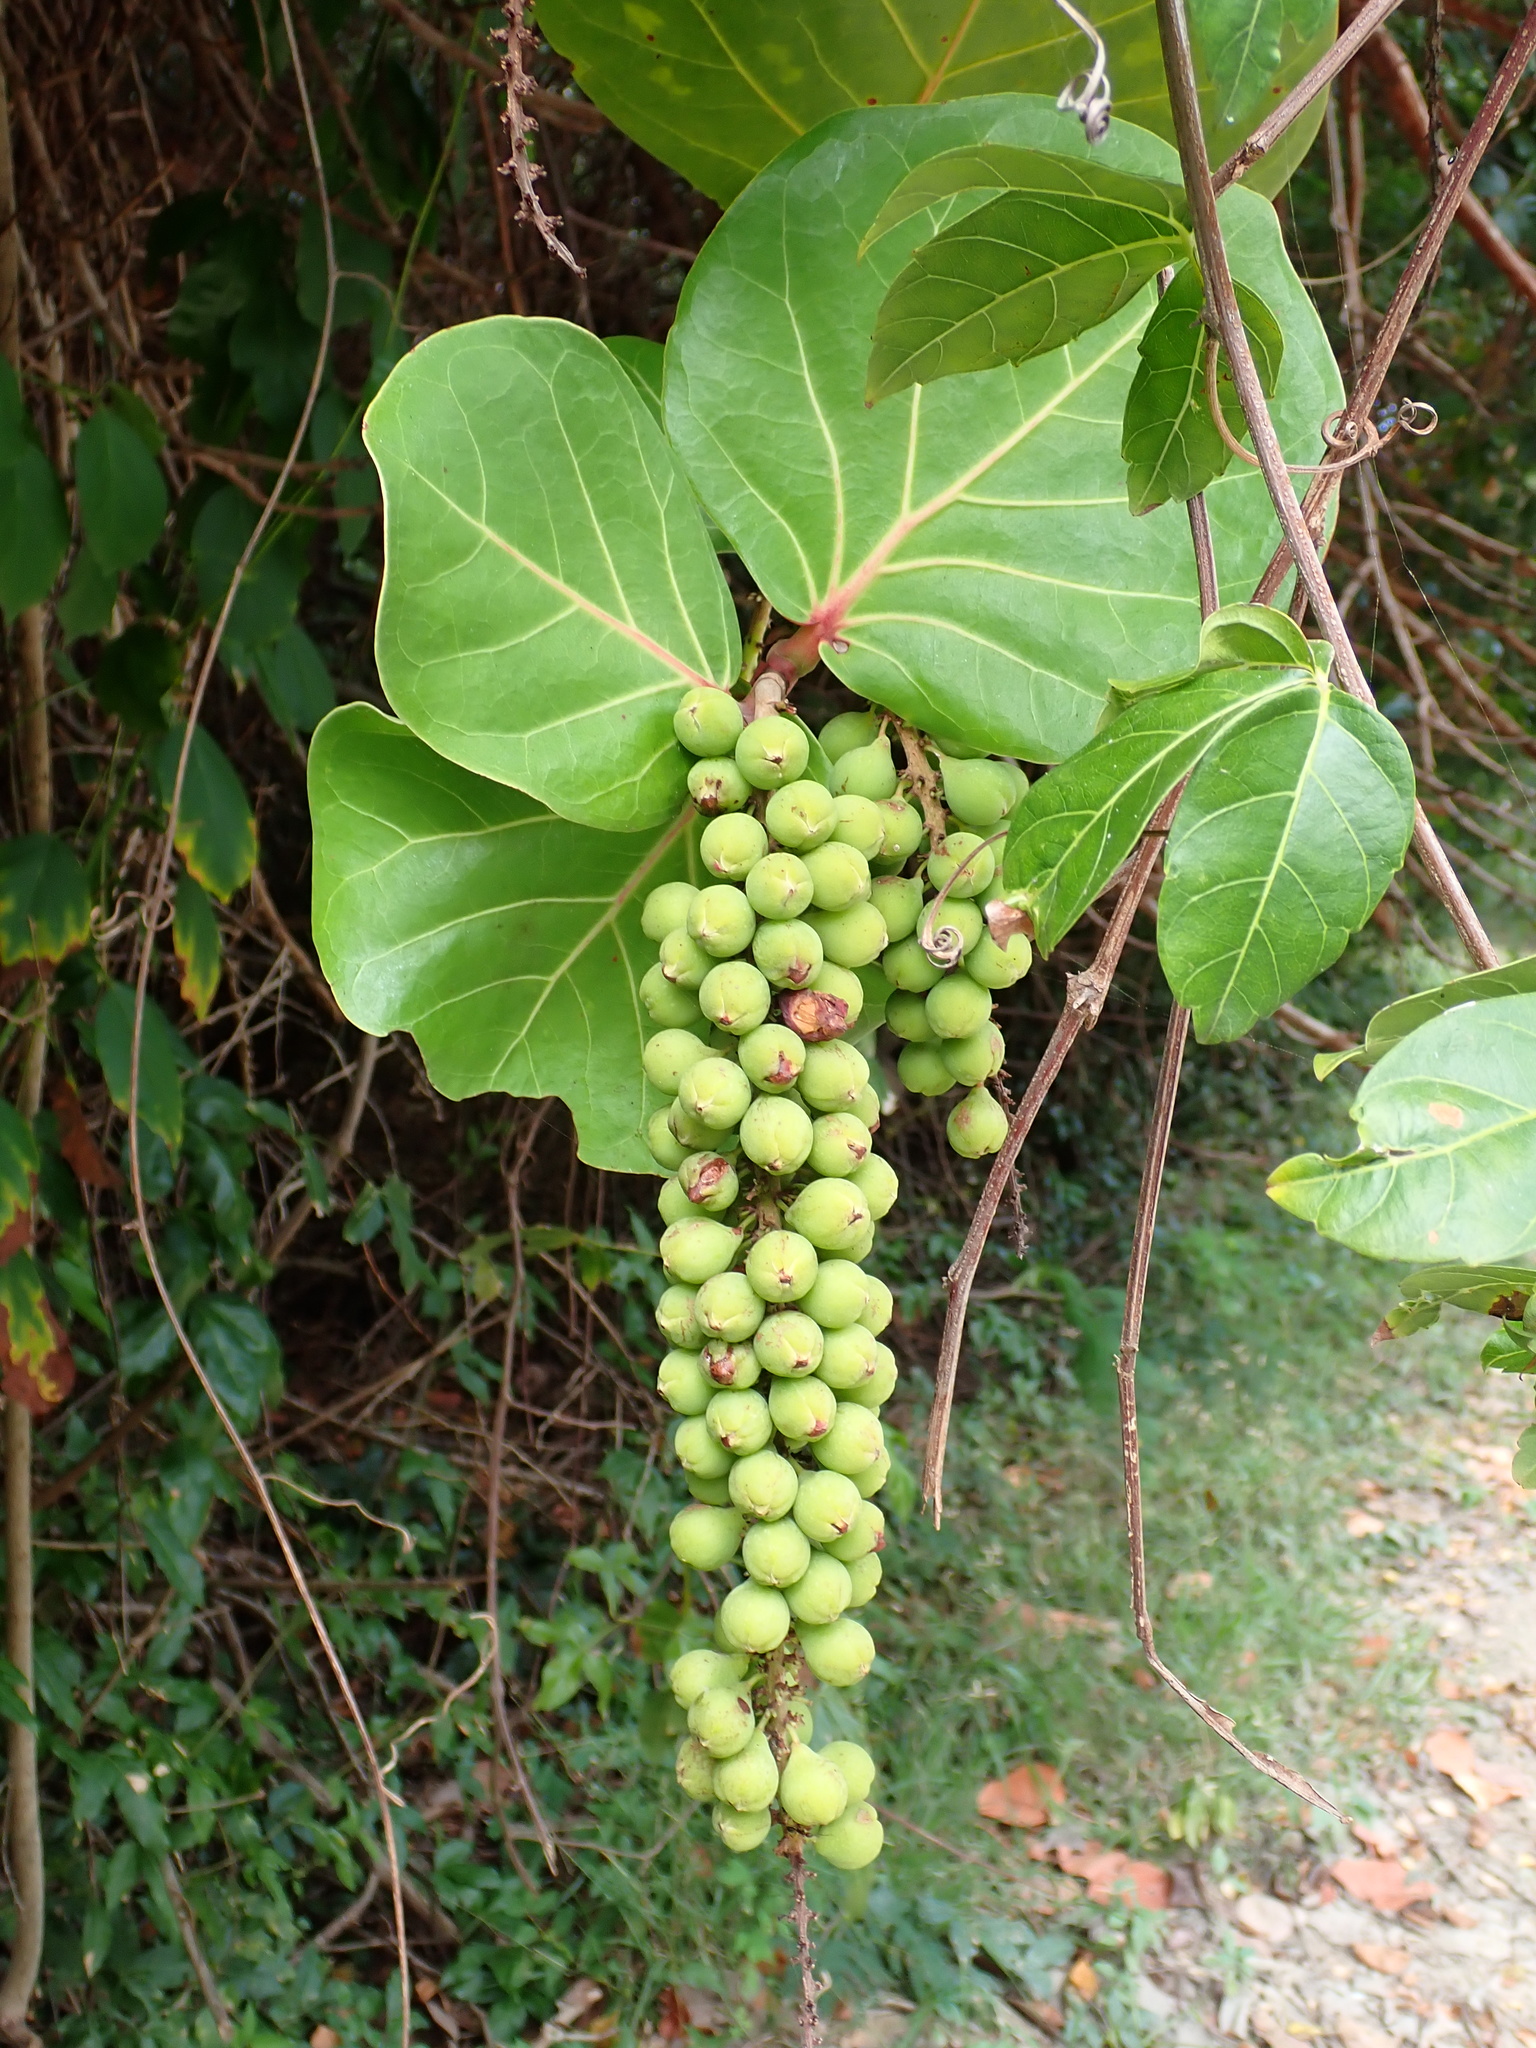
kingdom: Plantae
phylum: Tracheophyta
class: Magnoliopsida
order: Caryophyllales
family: Polygonaceae
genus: Coccoloba
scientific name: Coccoloba uvifera
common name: Seagrape
